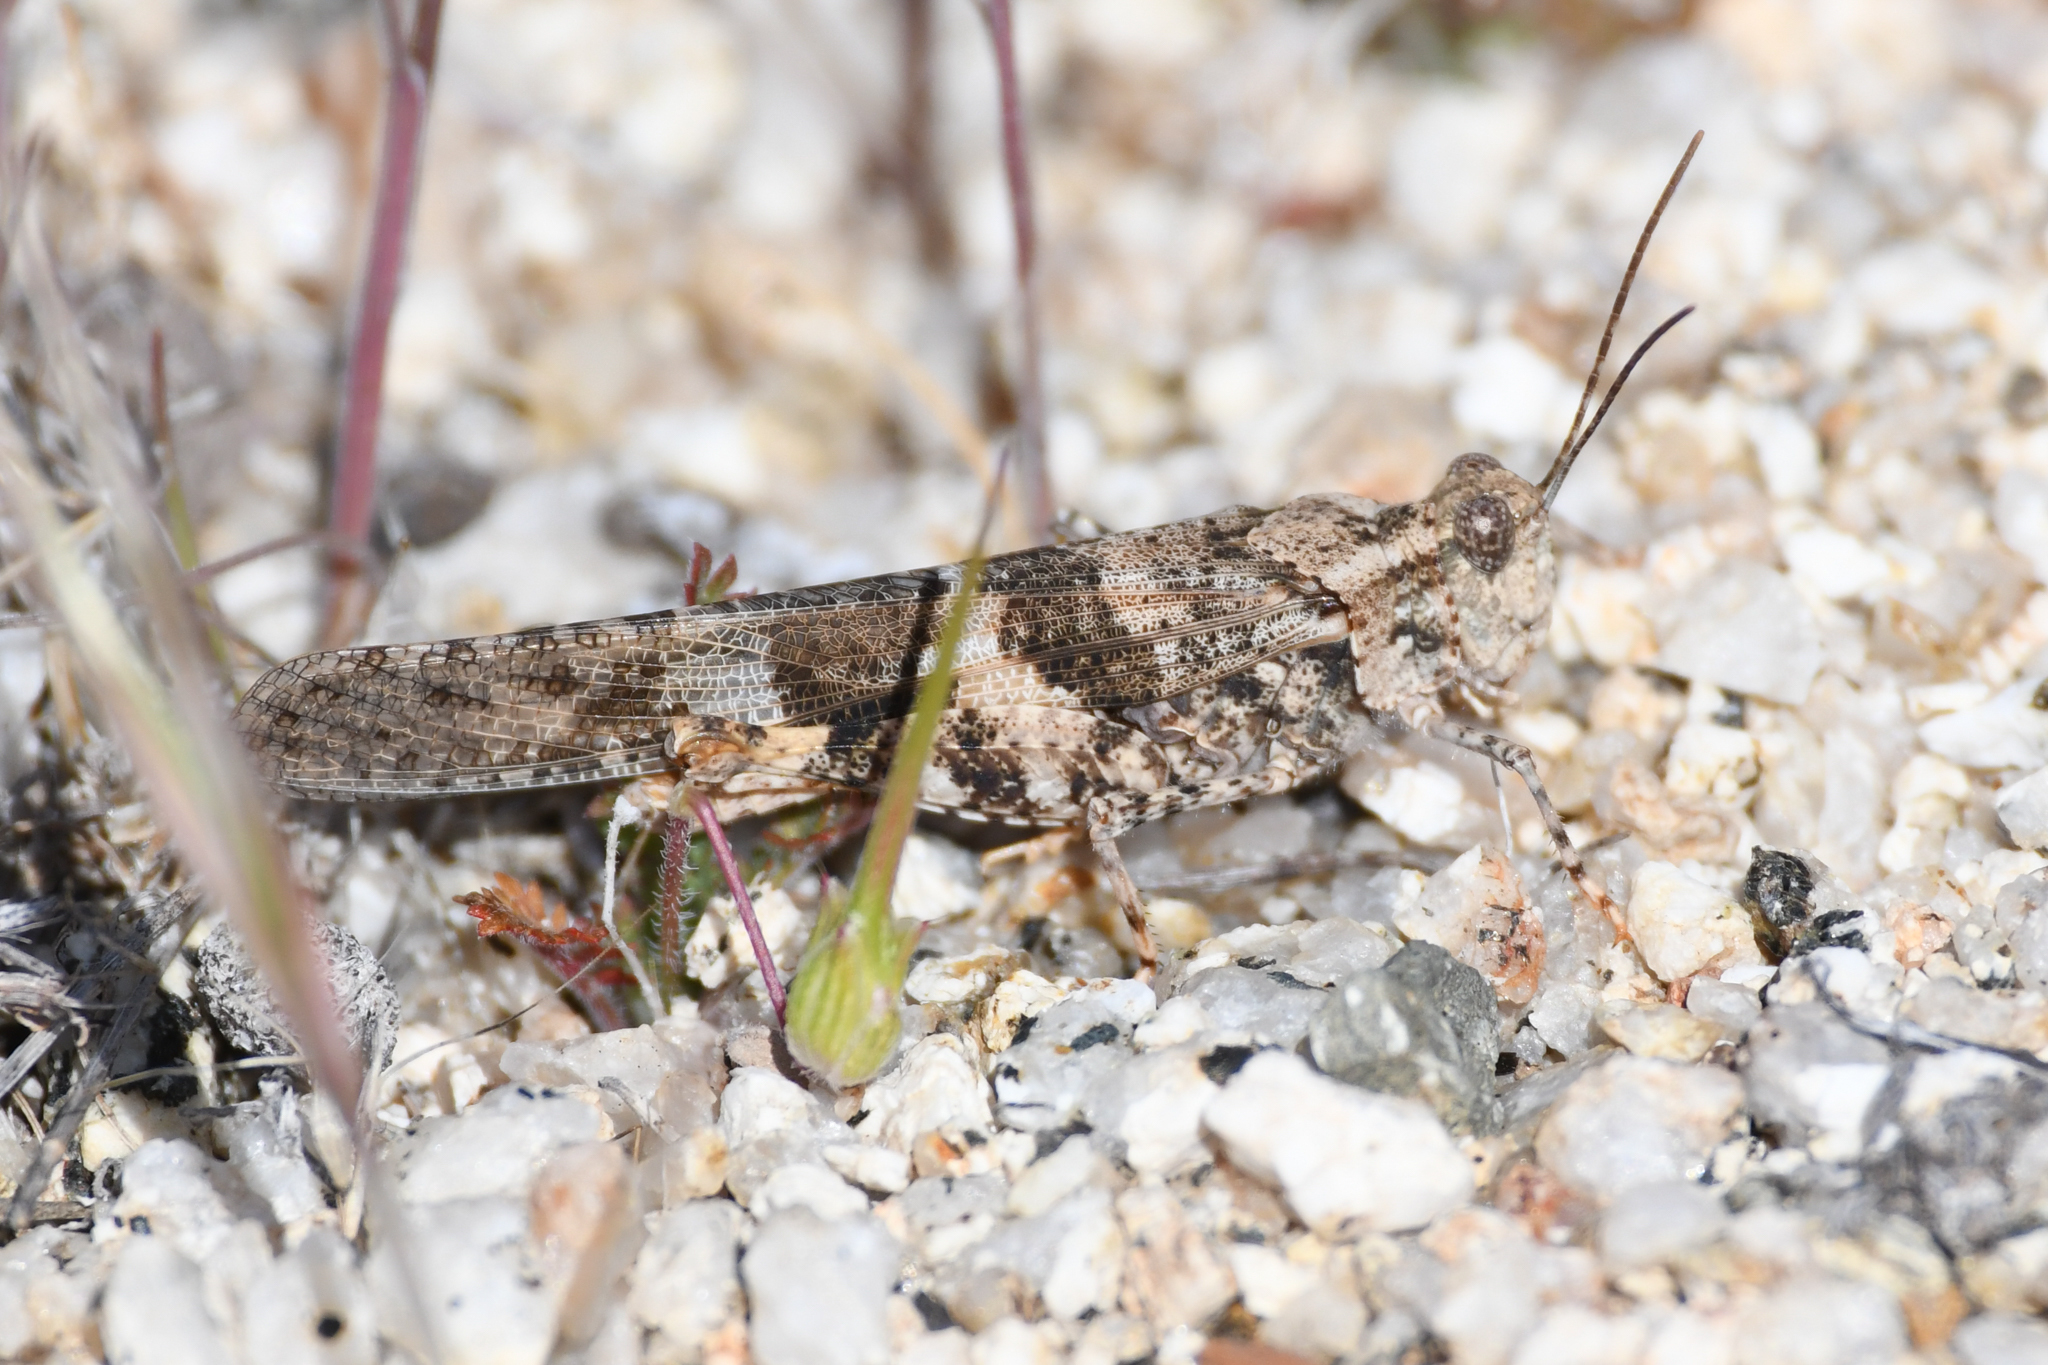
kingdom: Animalia
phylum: Arthropoda
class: Insecta
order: Orthoptera
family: Acrididae
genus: Trimerotropis
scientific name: Trimerotropis pallidipennis
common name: Pallid-winged grasshopper
